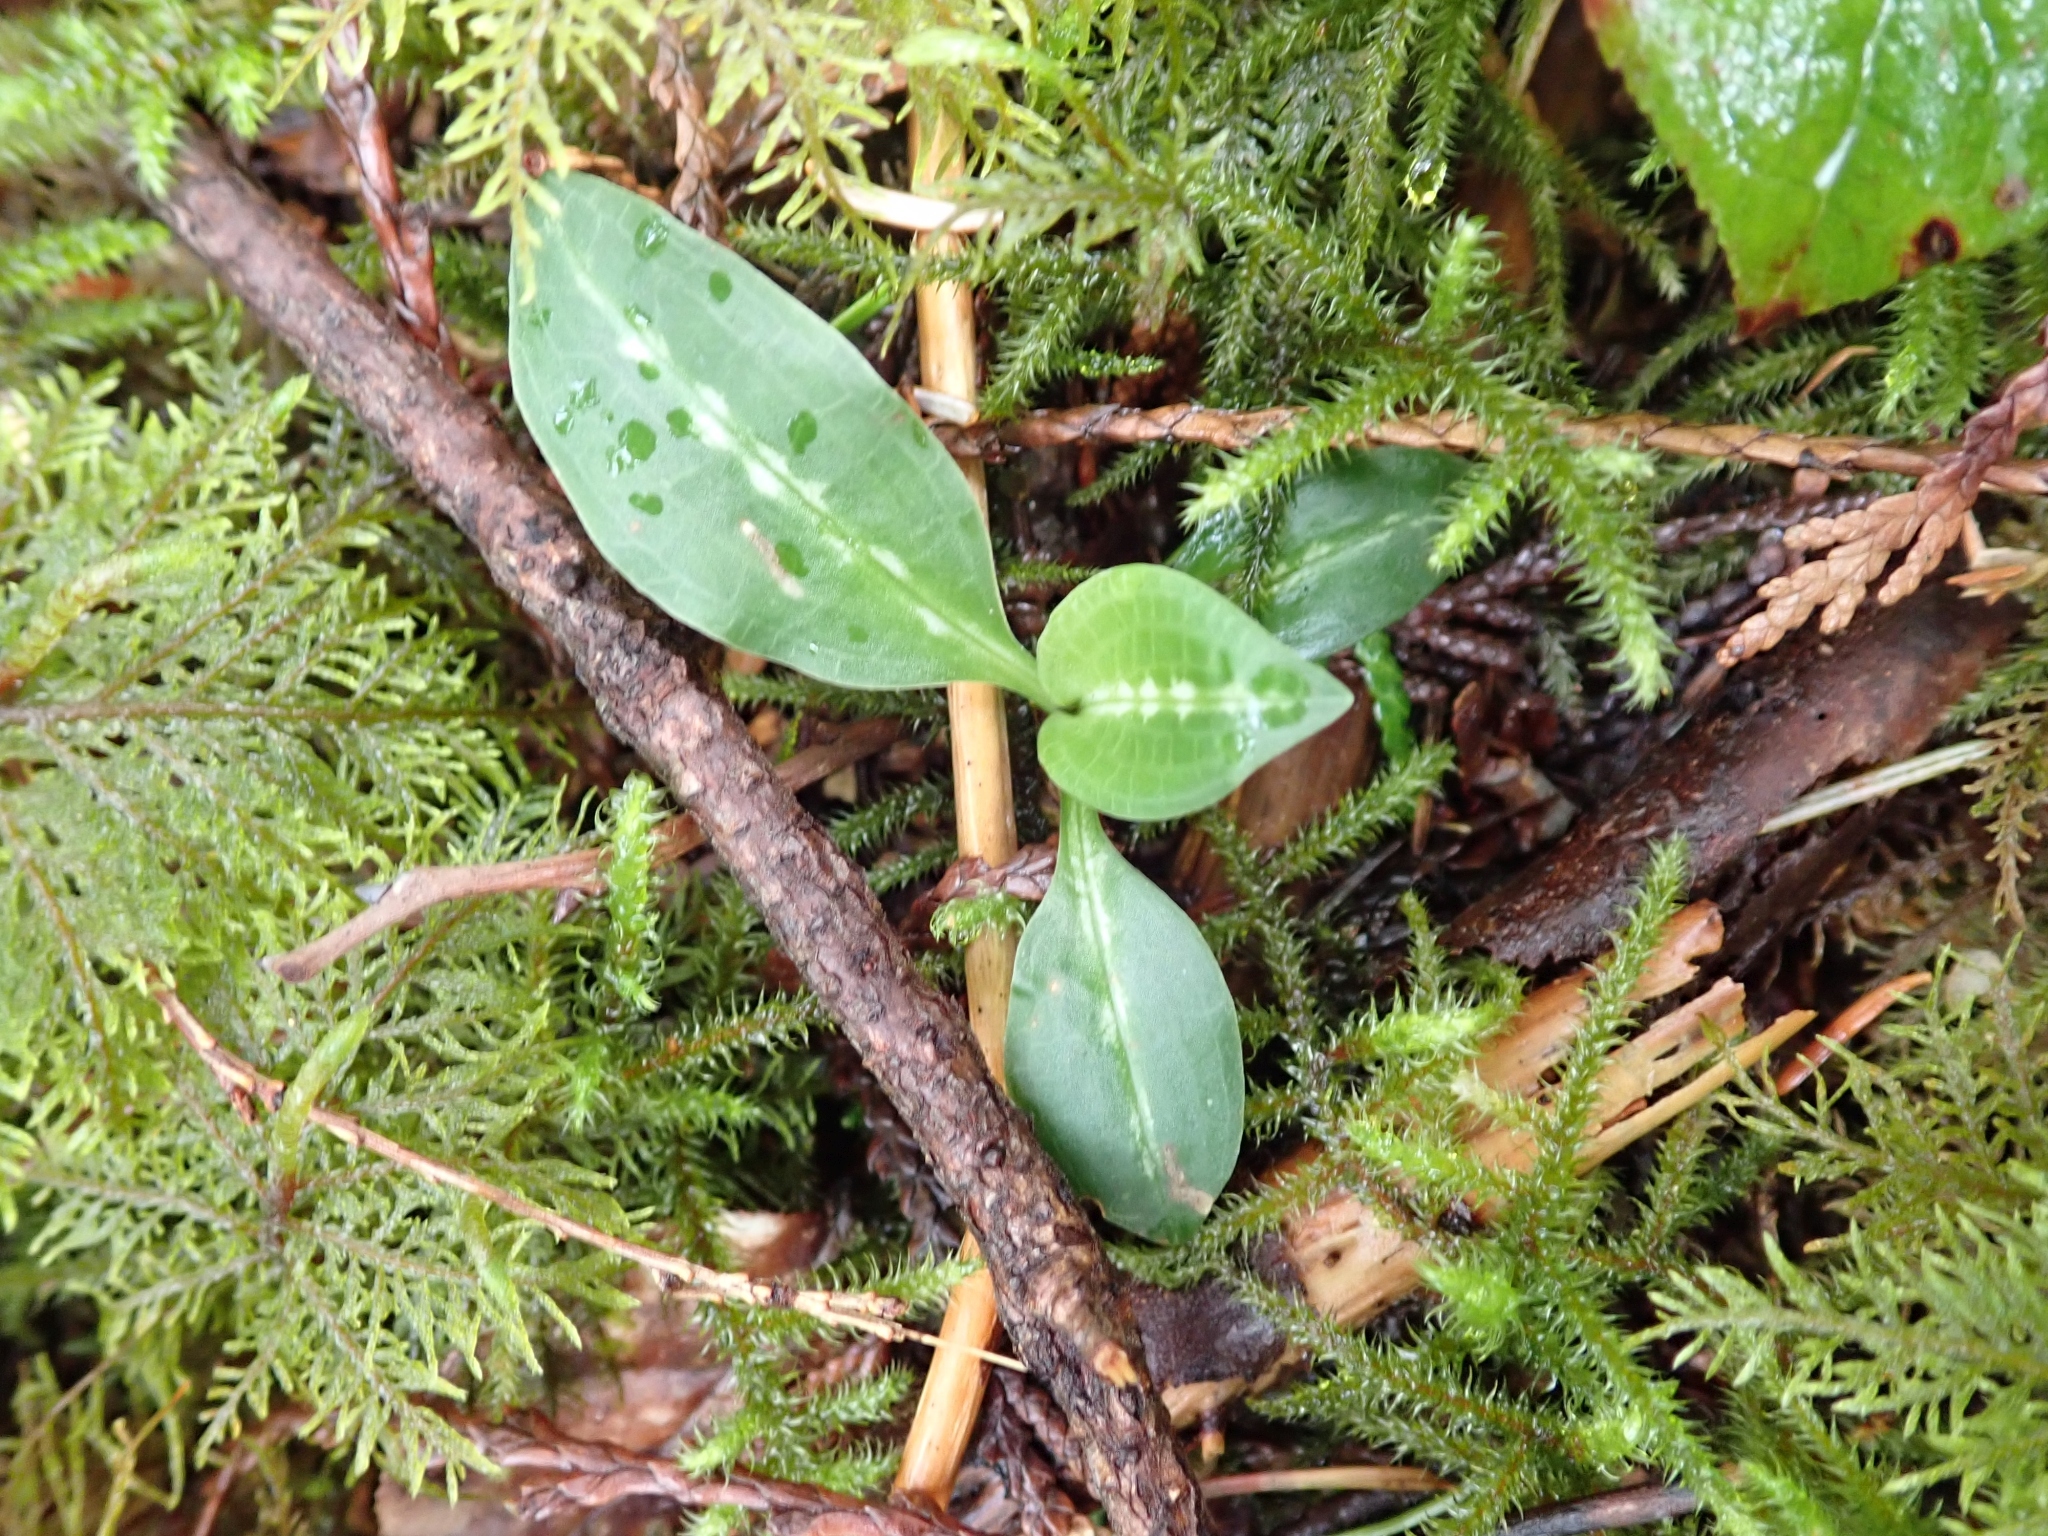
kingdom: Plantae
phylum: Tracheophyta
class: Liliopsida
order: Asparagales
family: Orchidaceae
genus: Goodyera
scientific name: Goodyera oblongifolia
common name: Giant rattlesnake-plantain
